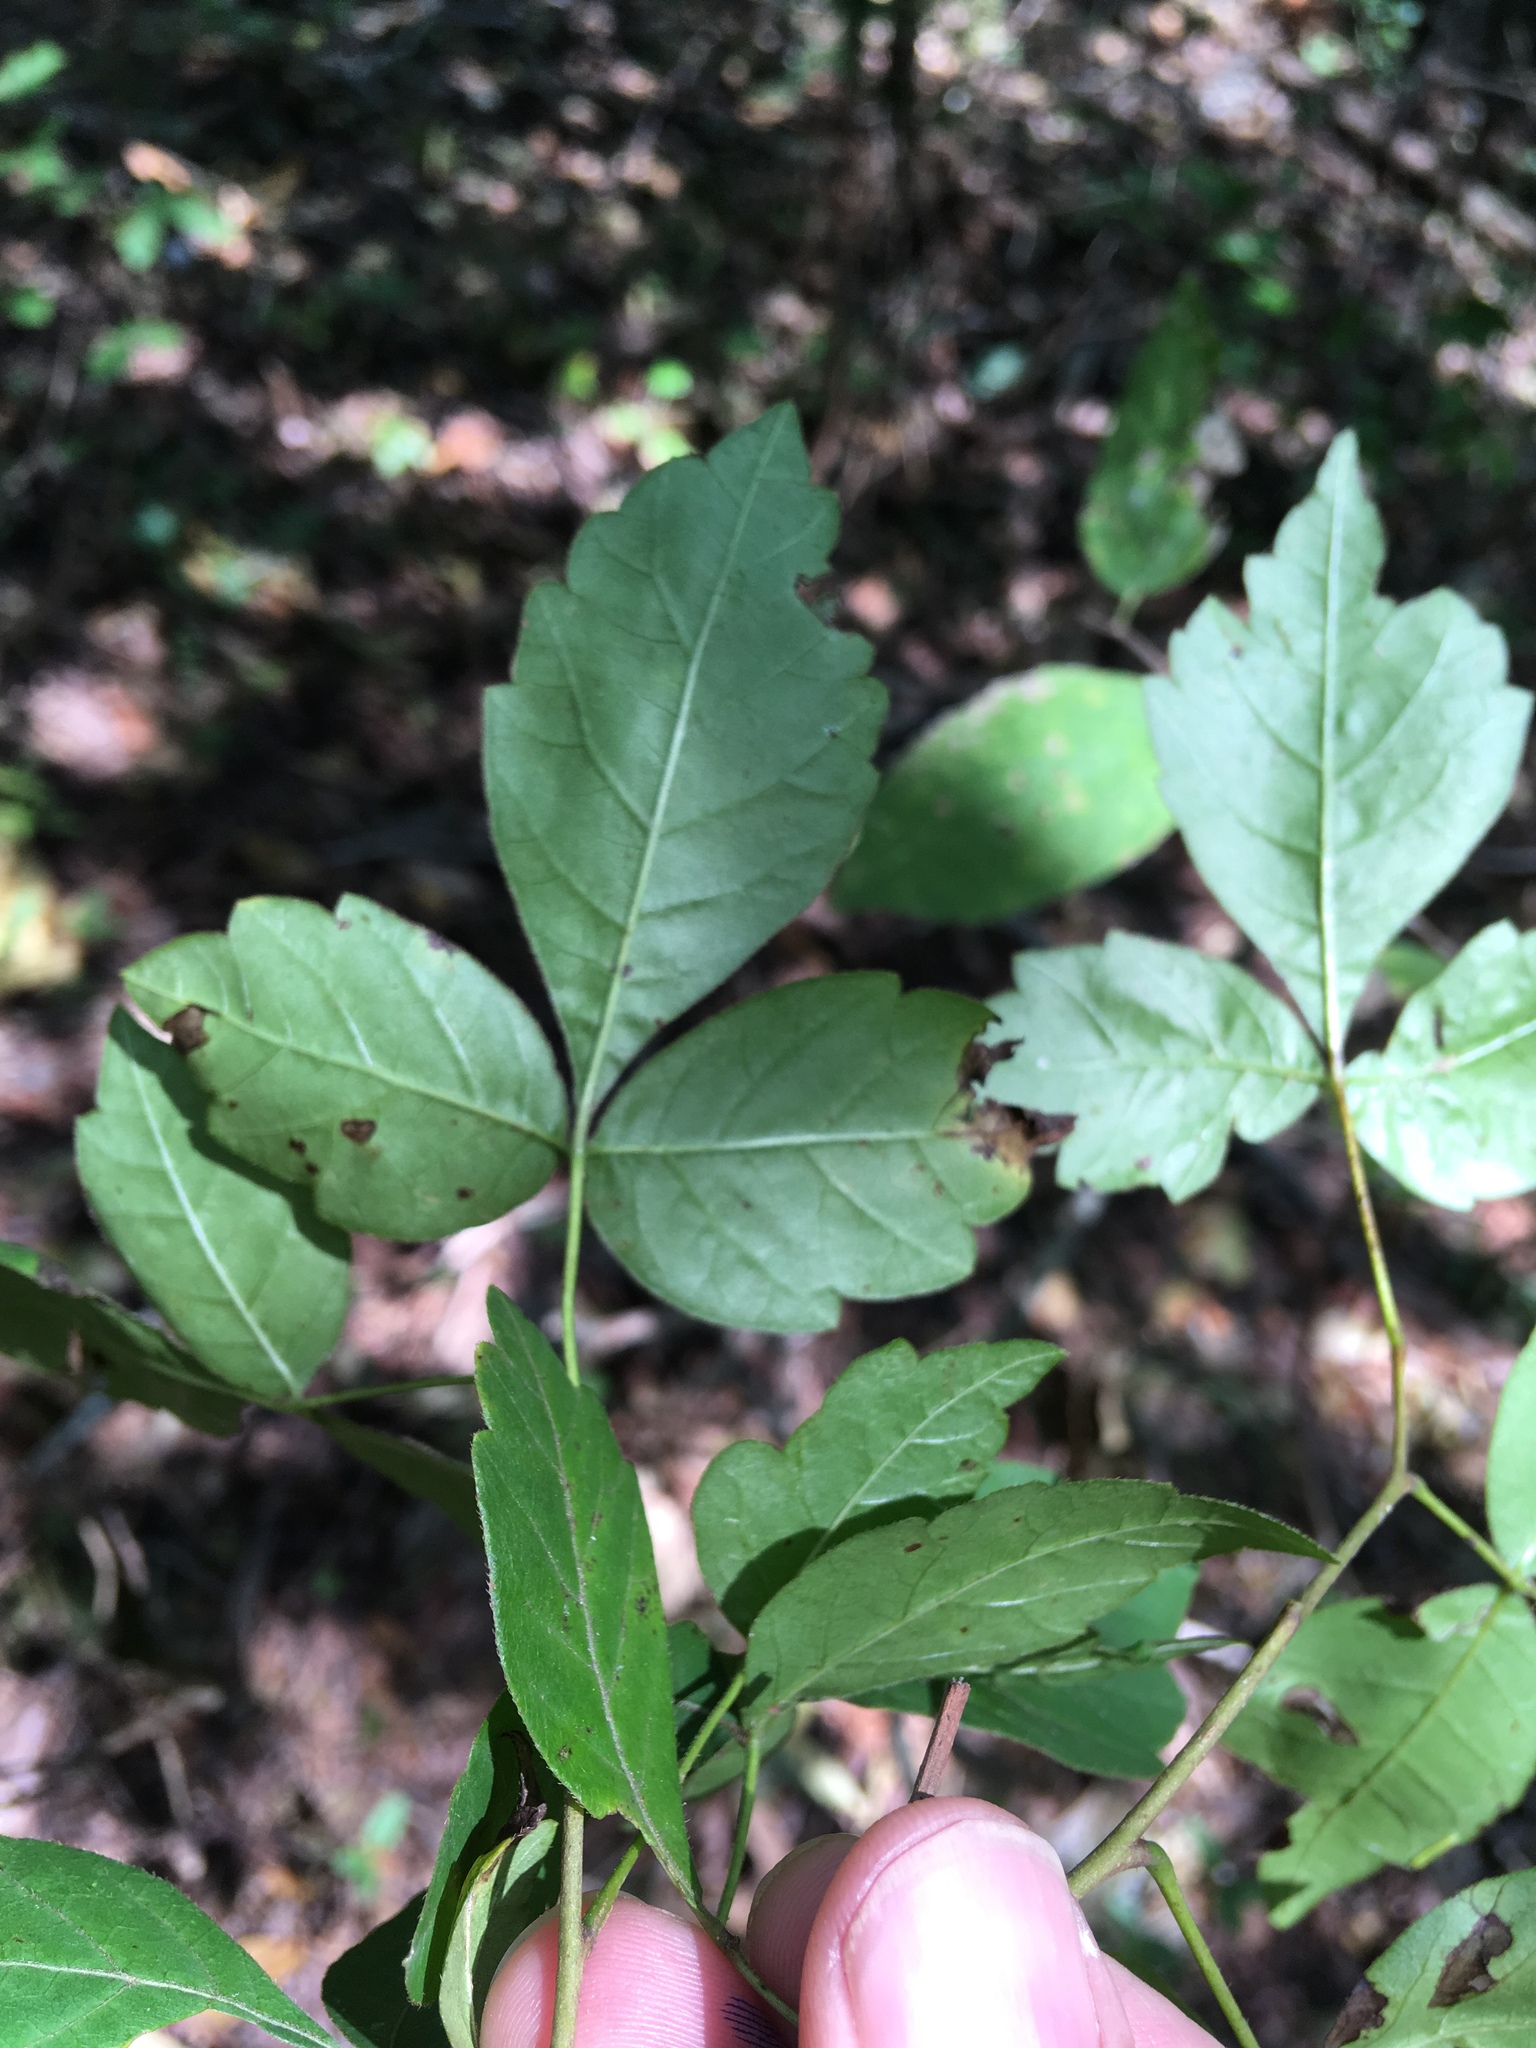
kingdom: Plantae
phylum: Tracheophyta
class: Magnoliopsida
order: Sapindales
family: Anacardiaceae
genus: Rhus
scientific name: Rhus aromatica
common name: Aromatic sumac
